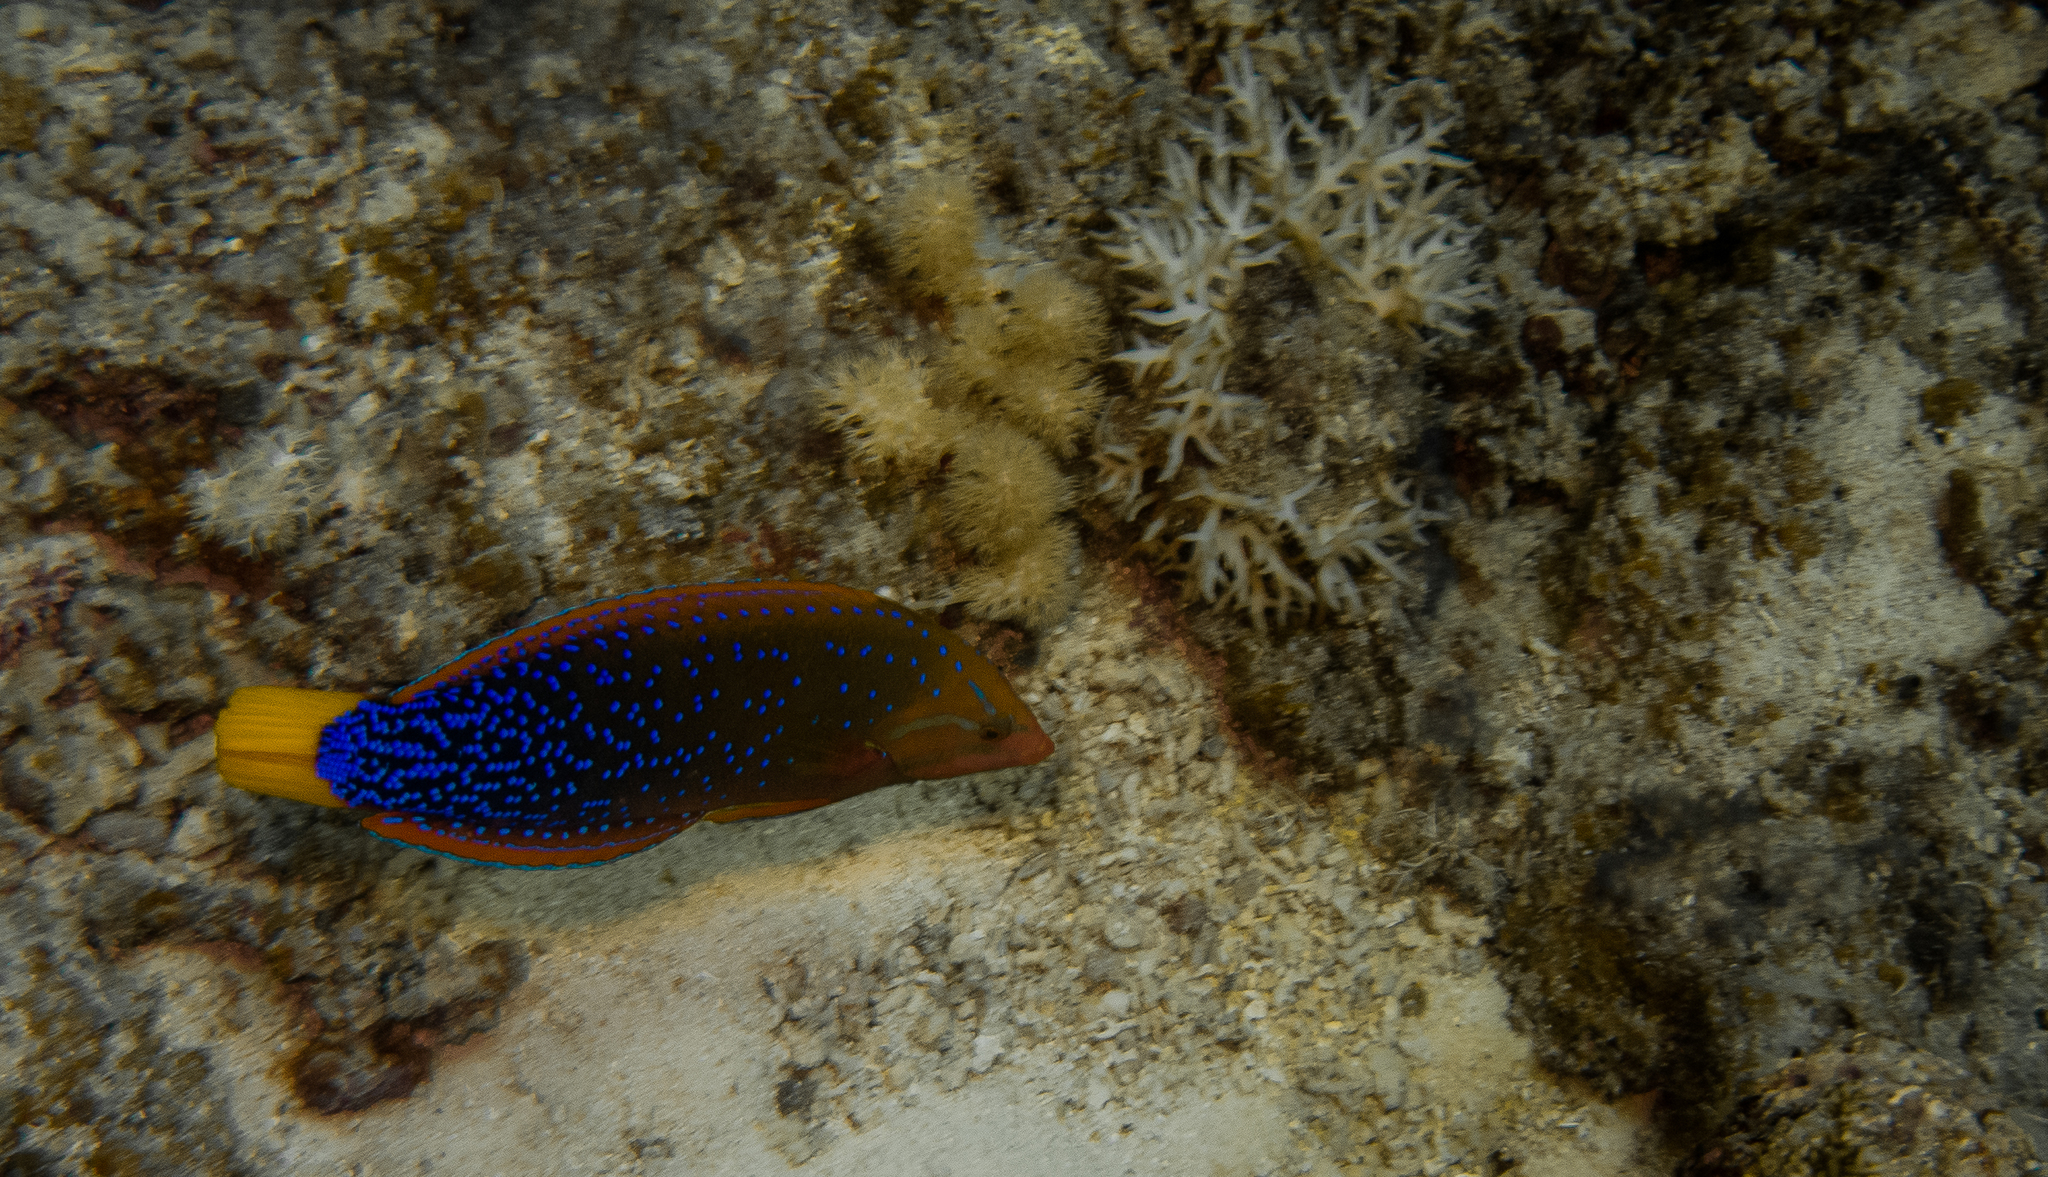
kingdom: Animalia
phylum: Chordata
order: Perciformes
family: Labridae
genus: Coris
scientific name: Coris gaimard
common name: Yellowtail coris
